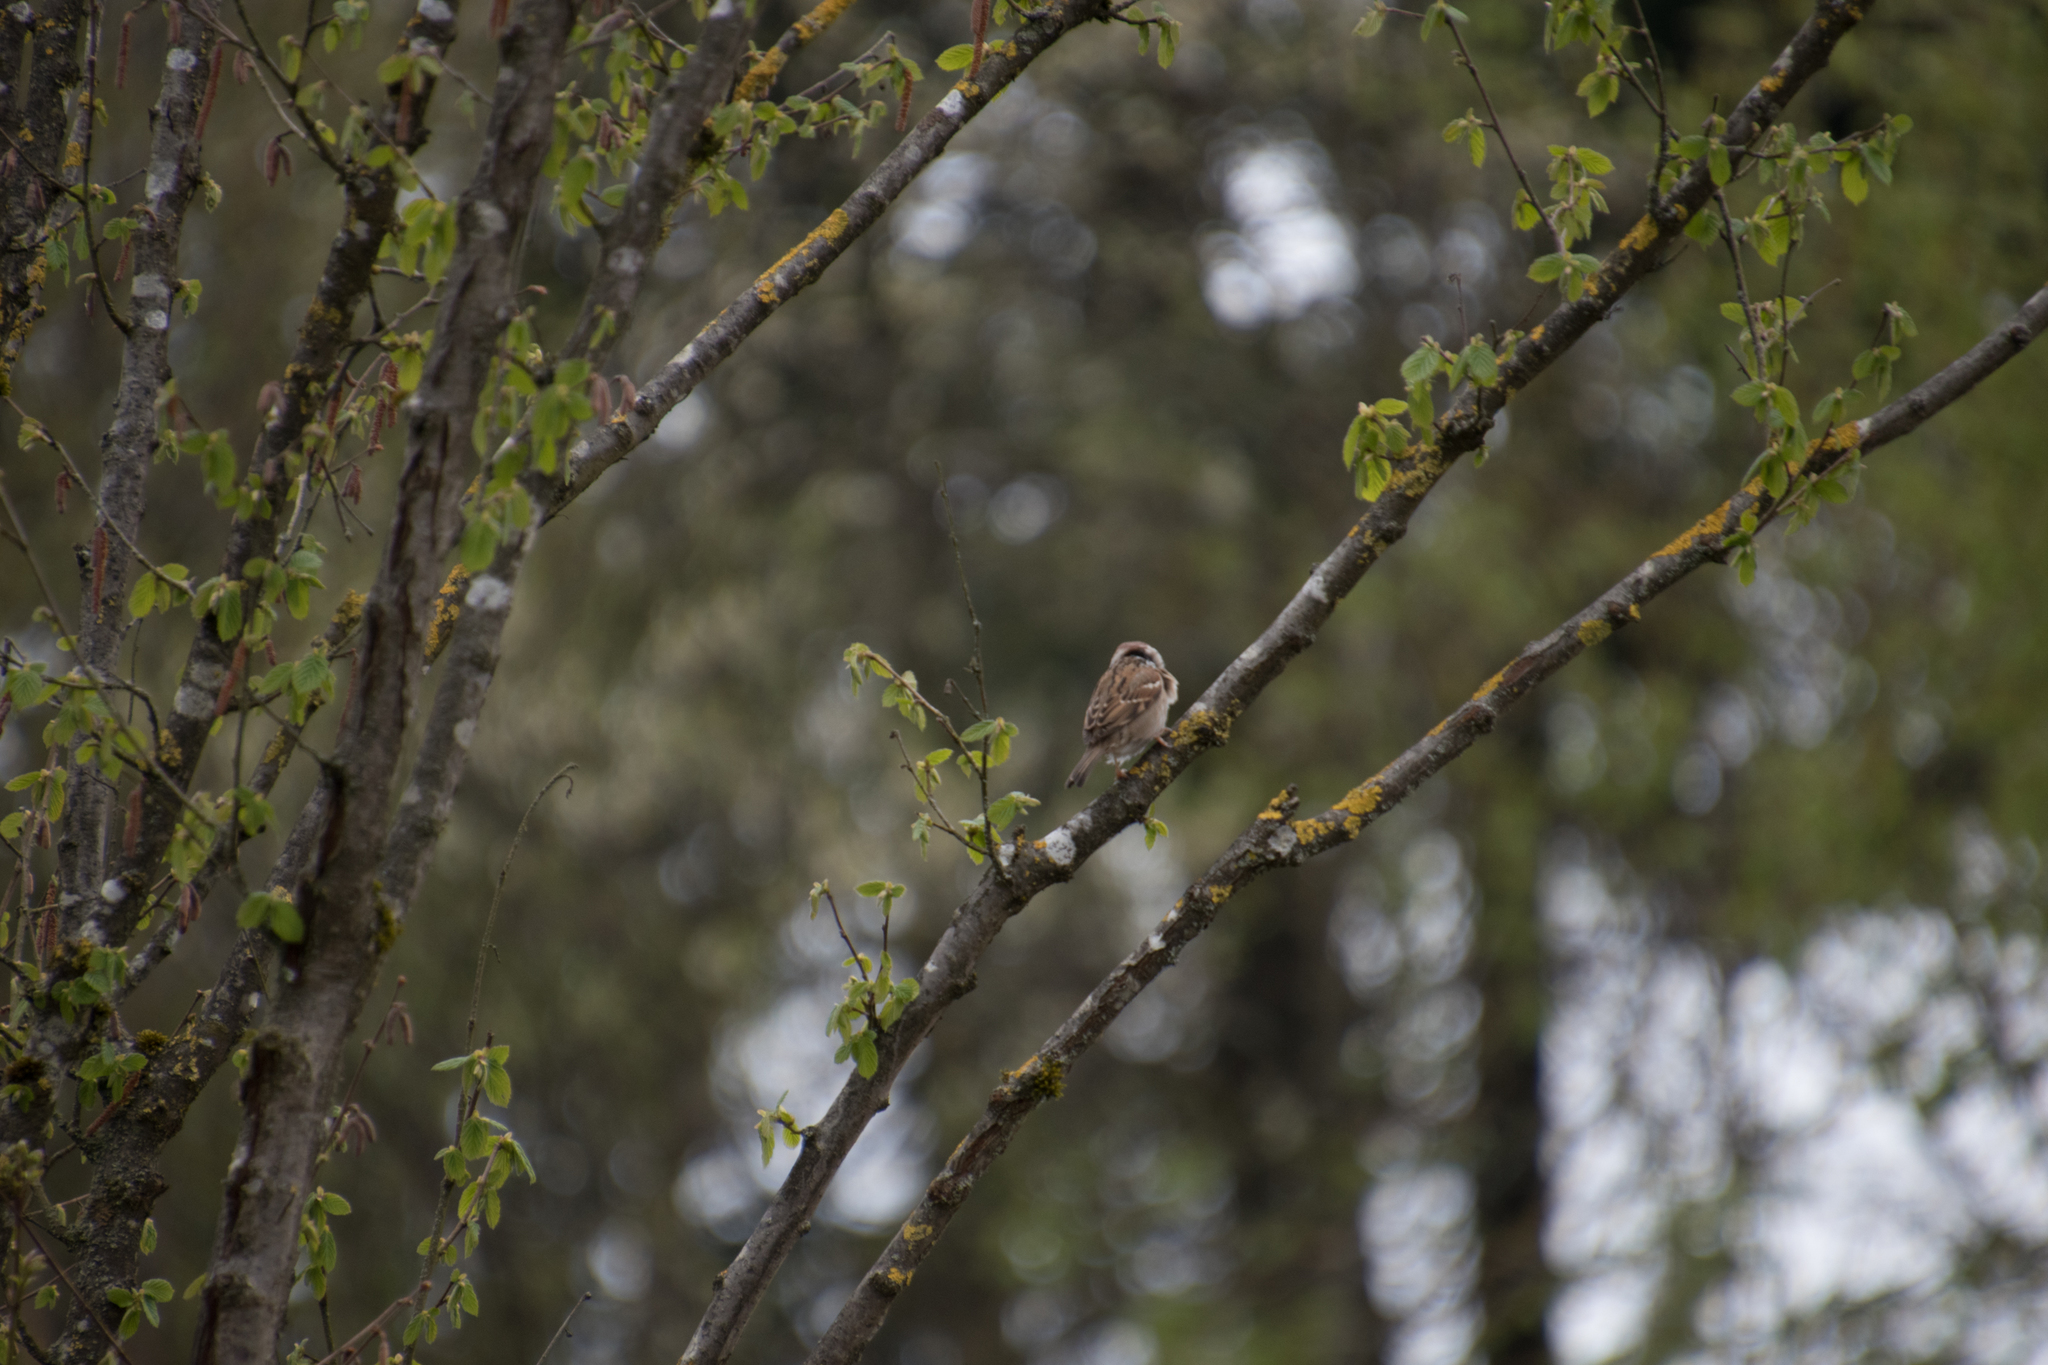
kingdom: Animalia
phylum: Chordata
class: Aves
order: Passeriformes
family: Passeridae
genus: Passer
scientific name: Passer montanus
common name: Eurasian tree sparrow
